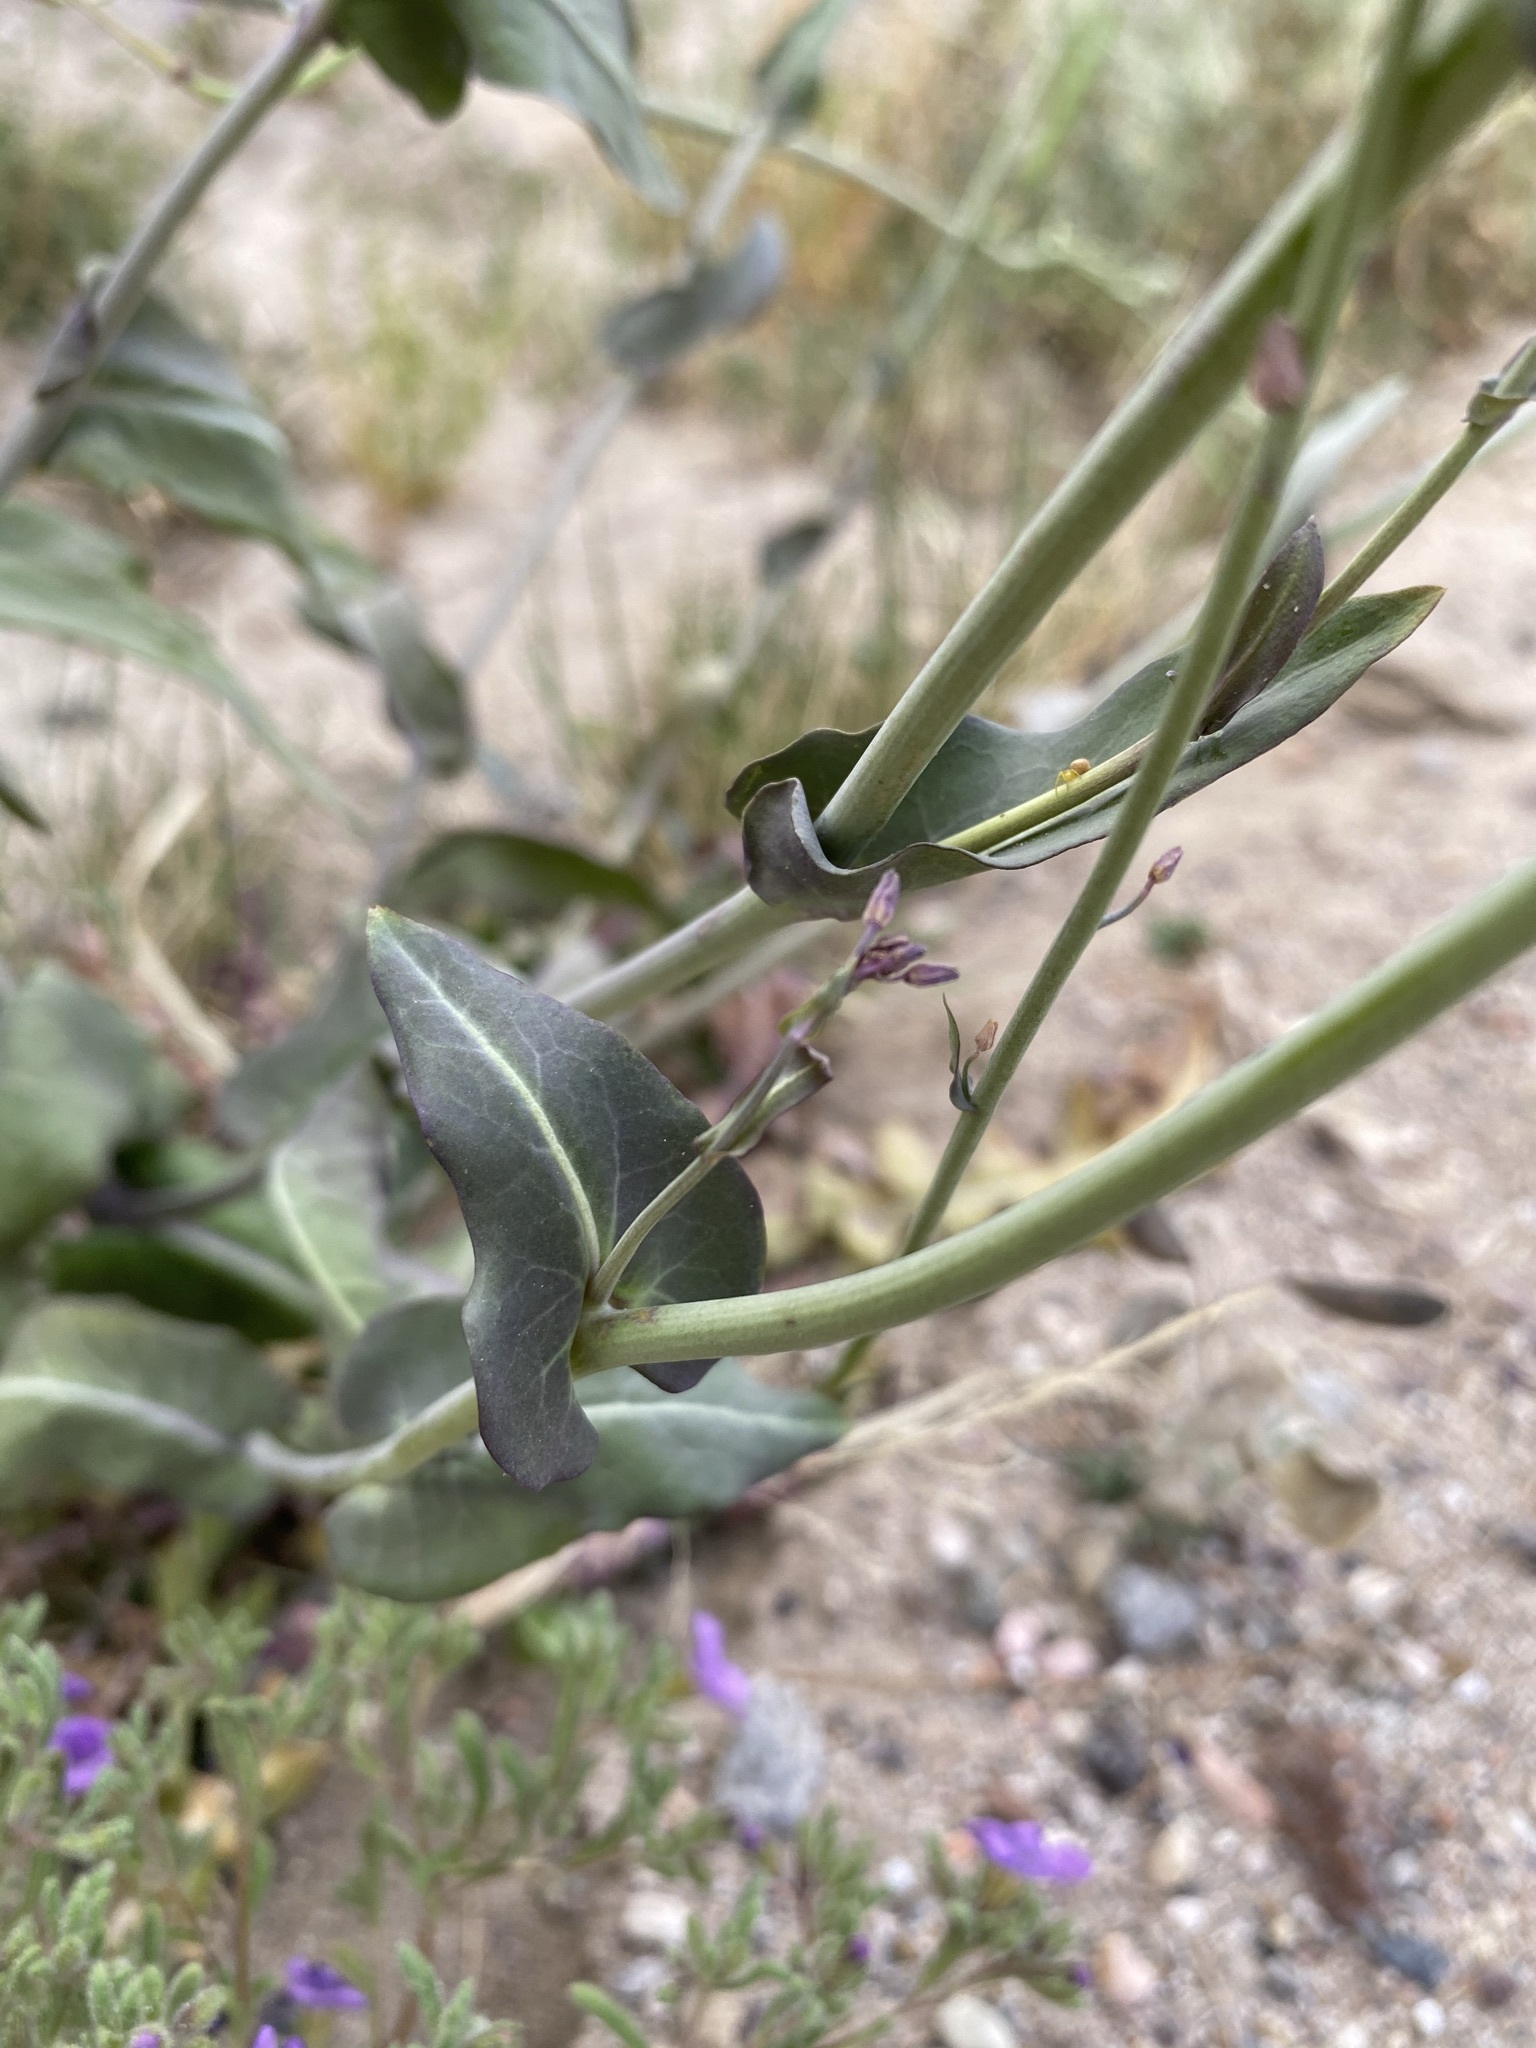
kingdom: Plantae
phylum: Tracheophyta
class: Magnoliopsida
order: Brassicales
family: Brassicaceae
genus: Streptanthus
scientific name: Streptanthus carinatus
